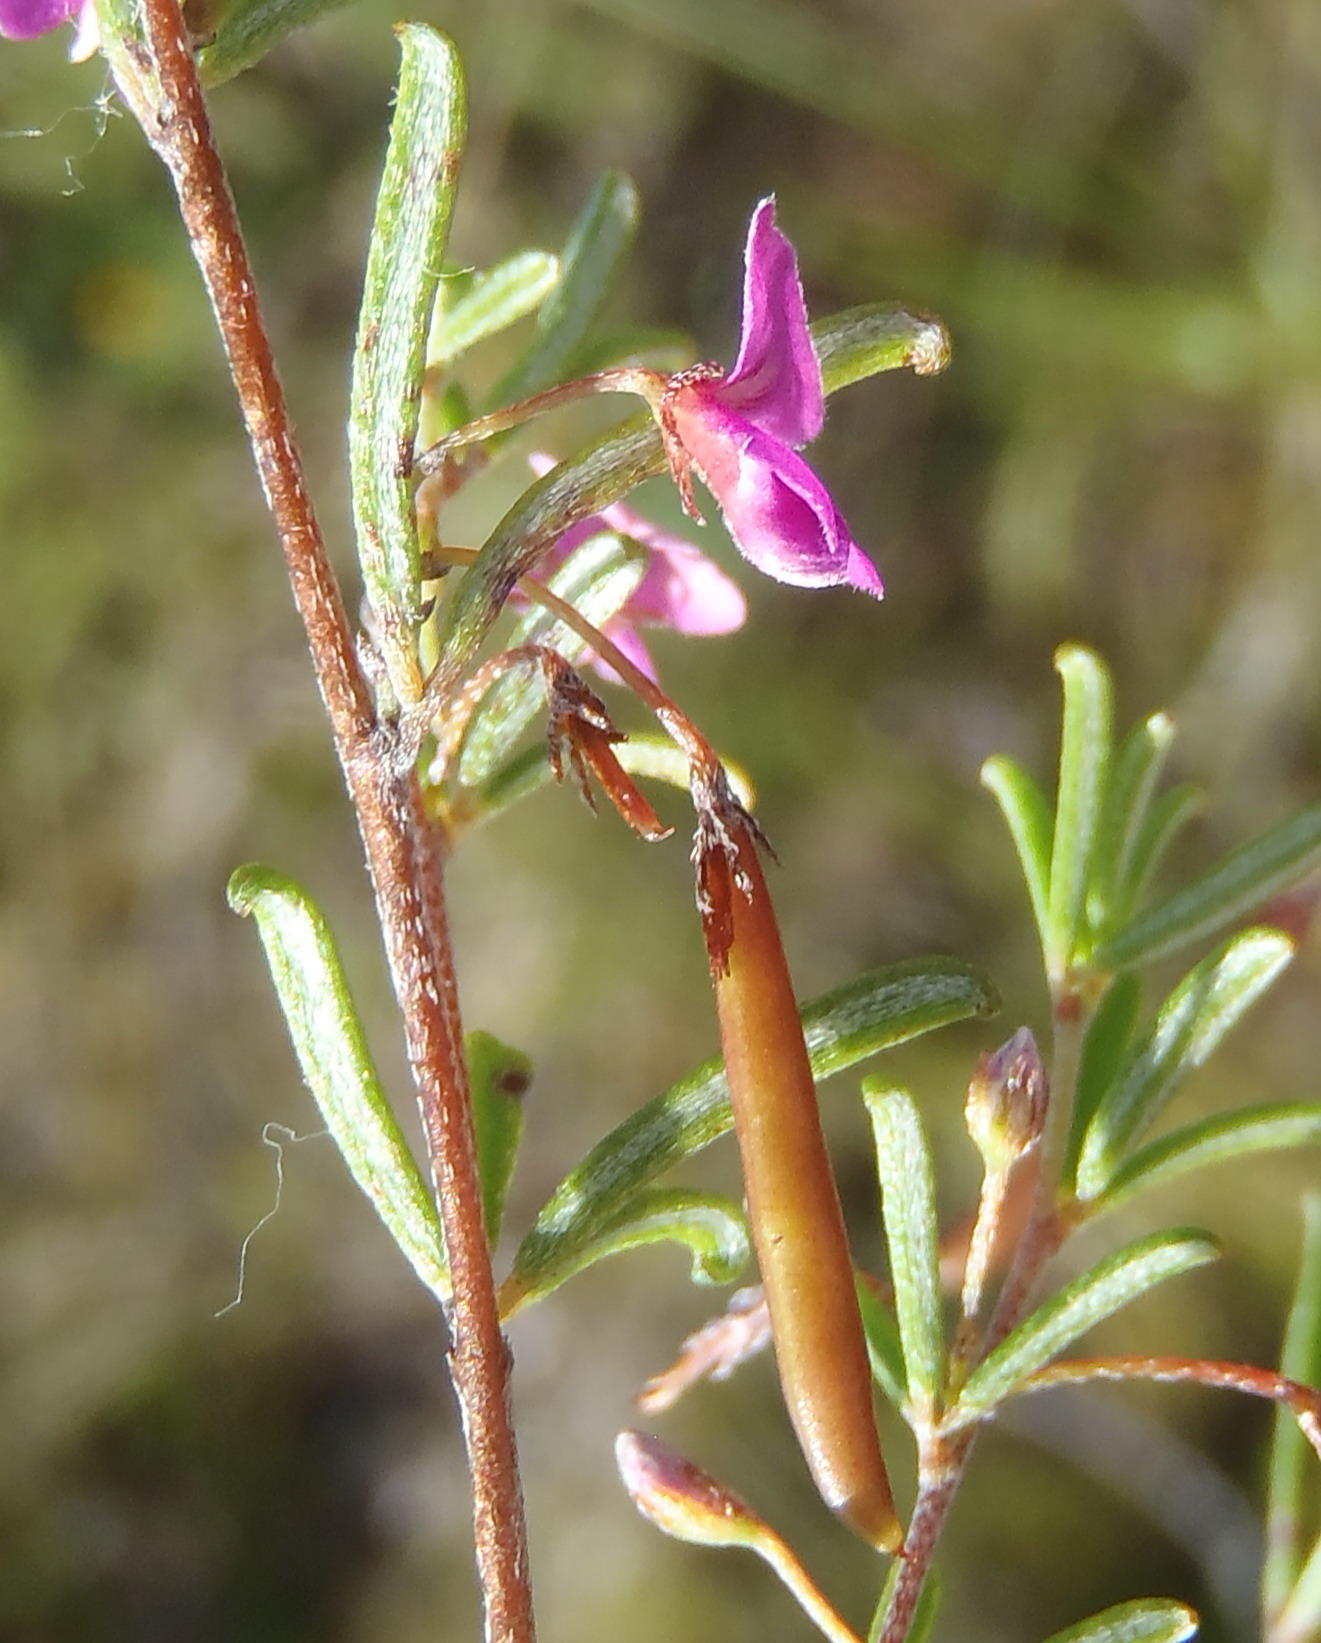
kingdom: Plantae
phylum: Tracheophyta
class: Magnoliopsida
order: Fabales
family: Fabaceae
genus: Indigofera
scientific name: Indigofera setosa
